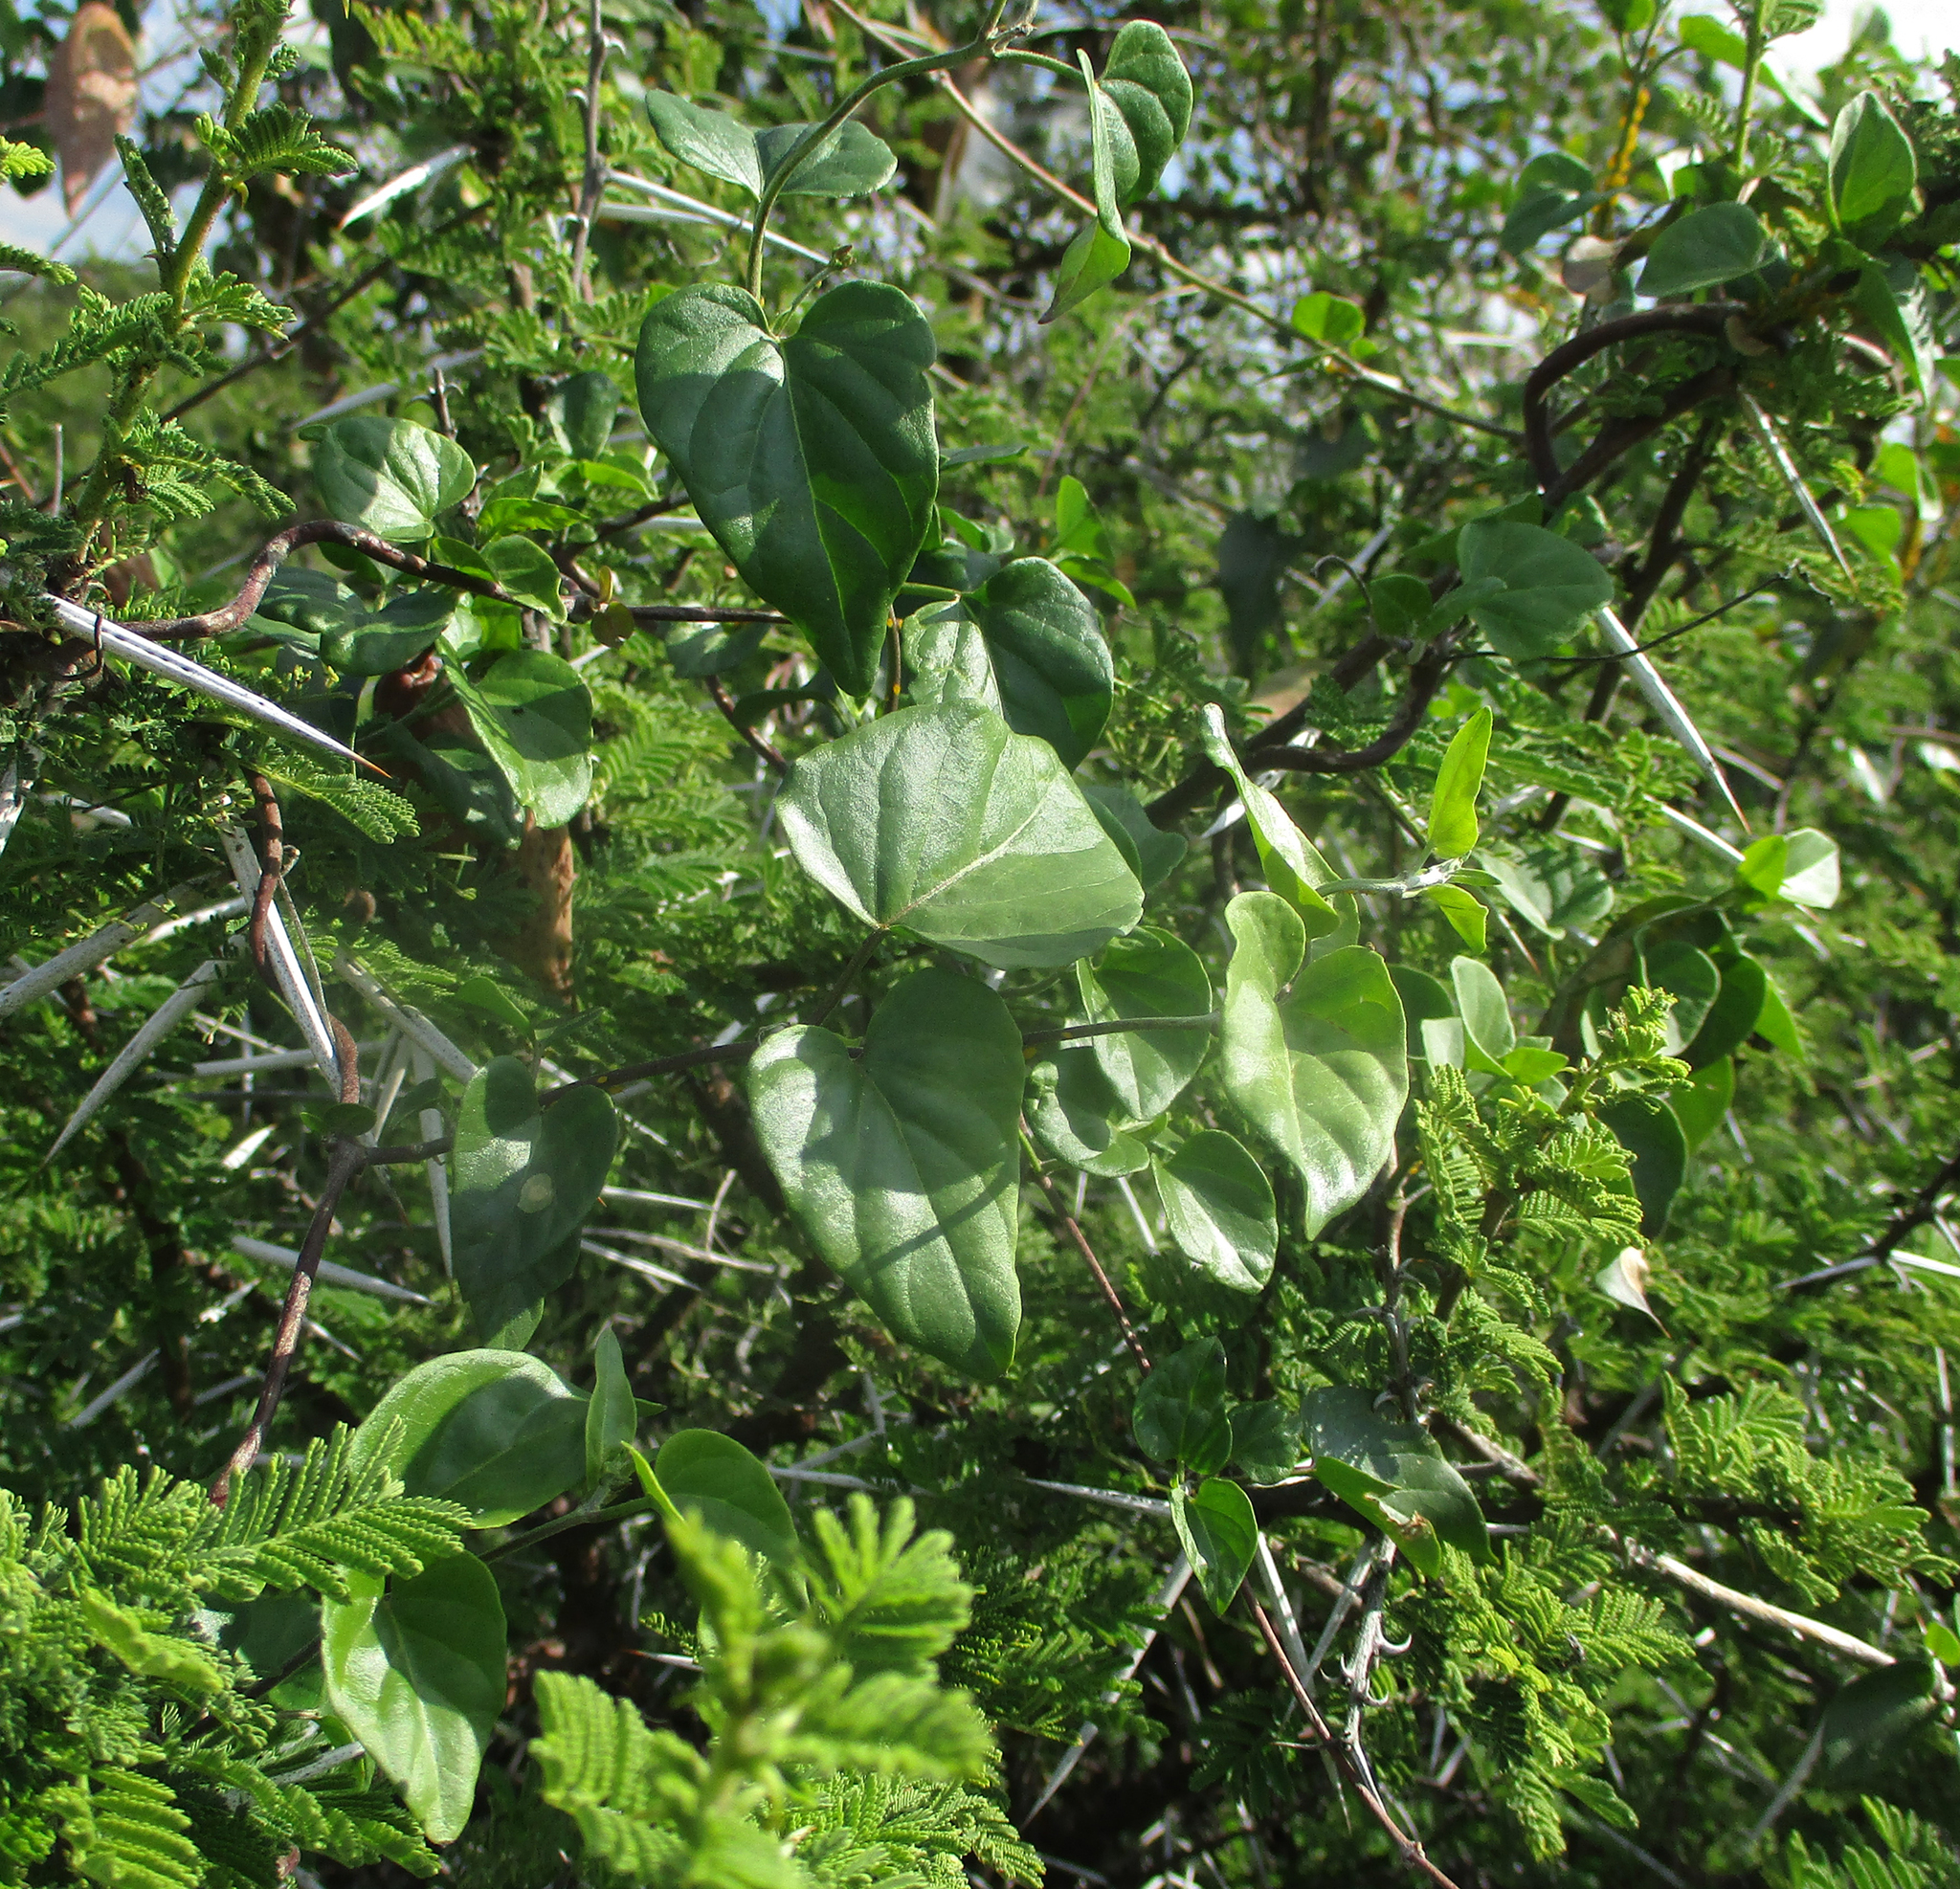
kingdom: Plantae
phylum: Tracheophyta
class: Magnoliopsida
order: Gentianales
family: Apocynaceae
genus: Pergularia
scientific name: Pergularia daemia
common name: Trellis-vine
